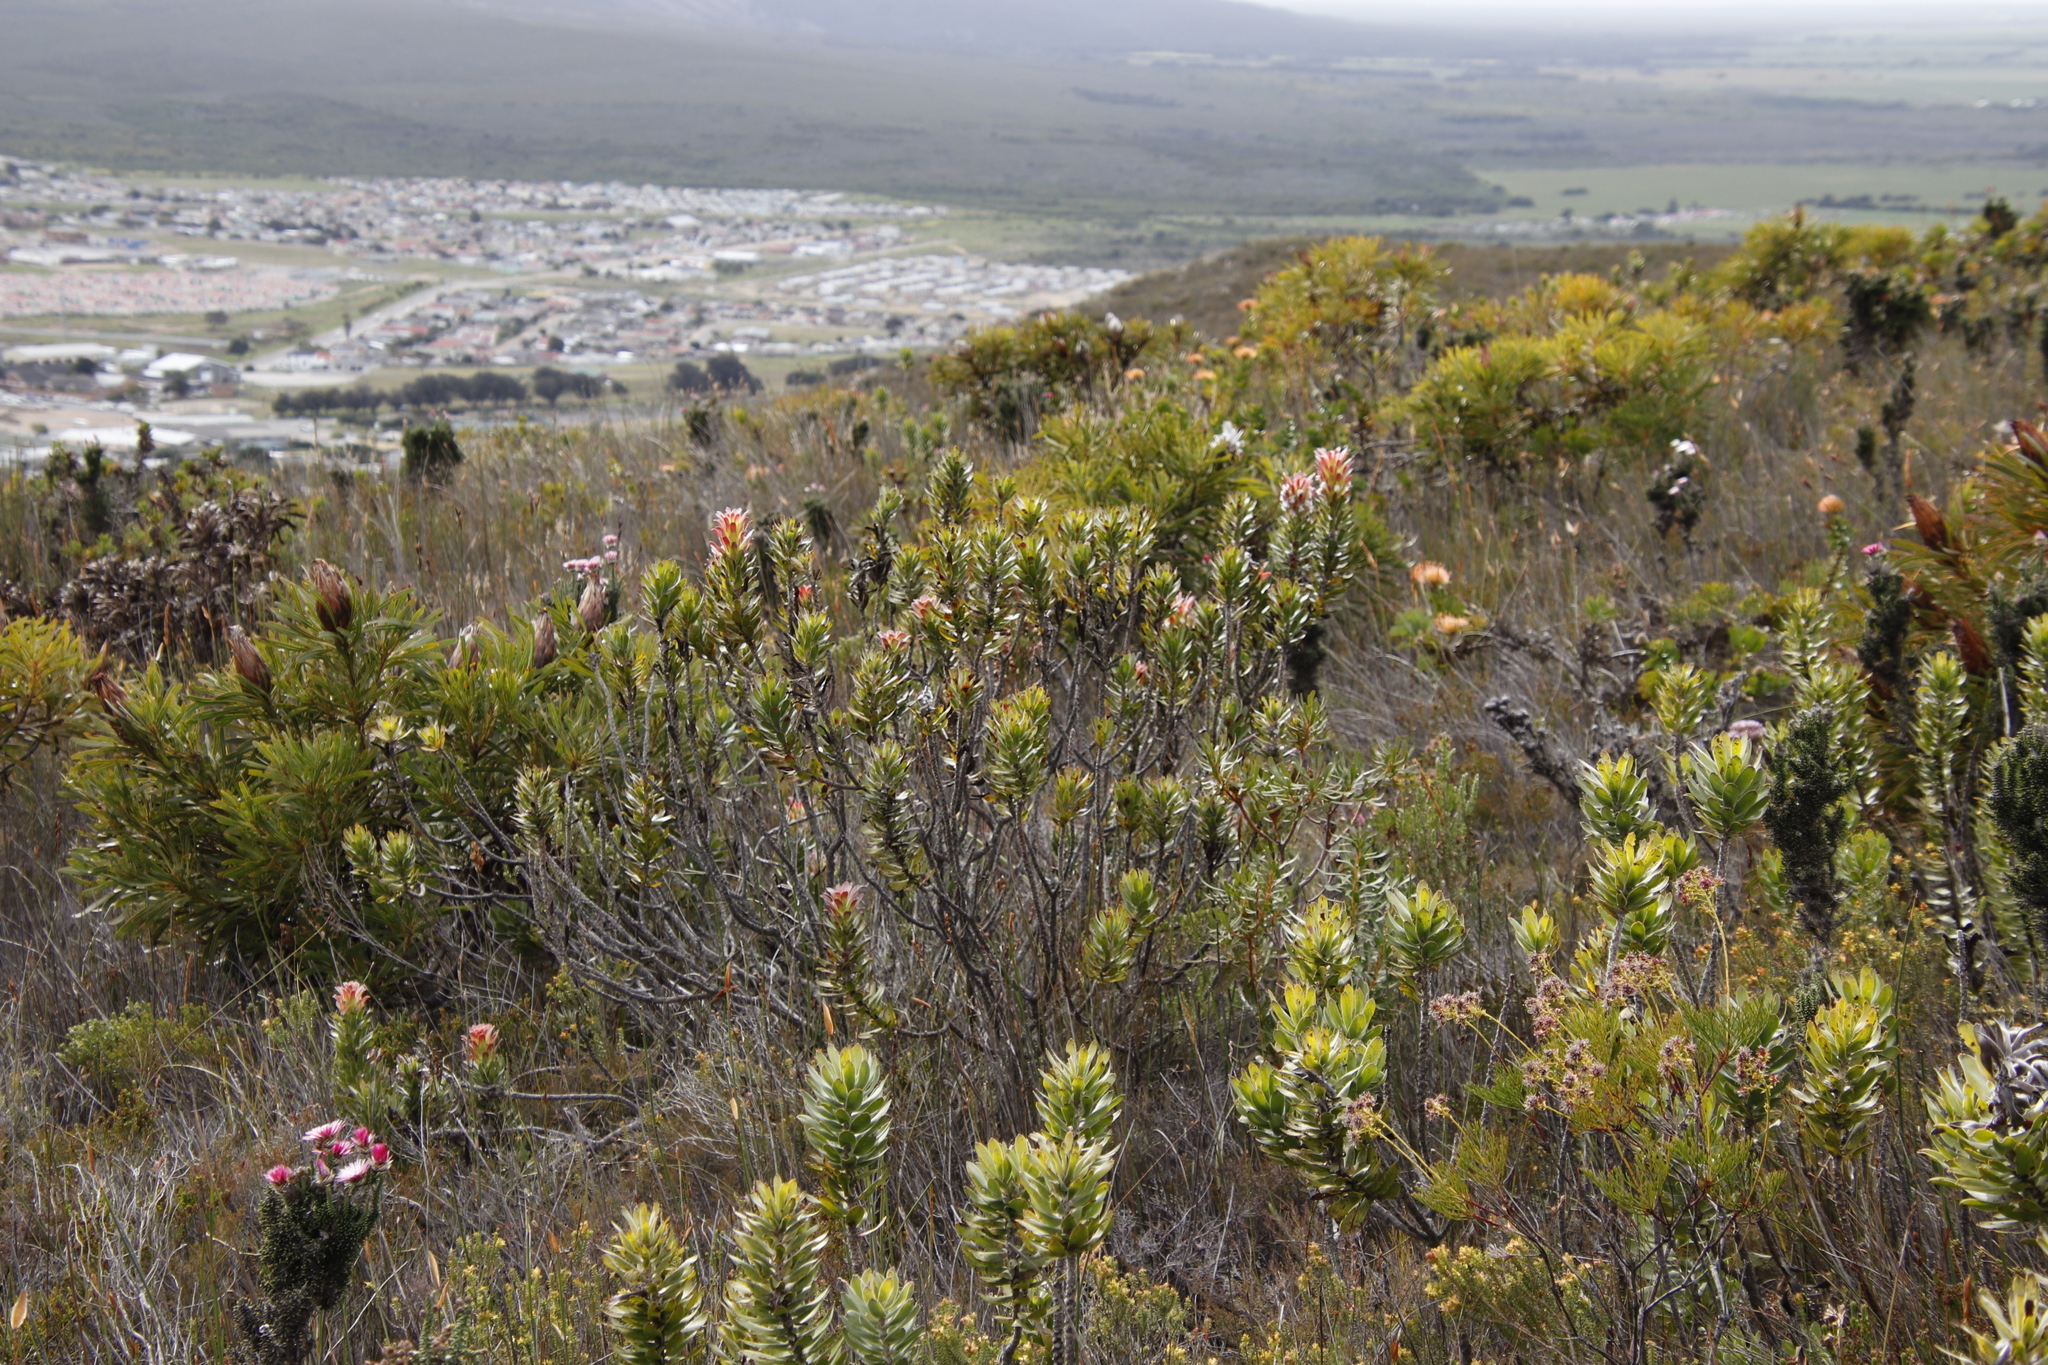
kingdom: Plantae
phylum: Tracheophyta
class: Magnoliopsida
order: Proteales
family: Proteaceae
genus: Mimetes
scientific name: Mimetes cucullatus
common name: Common pagoda
